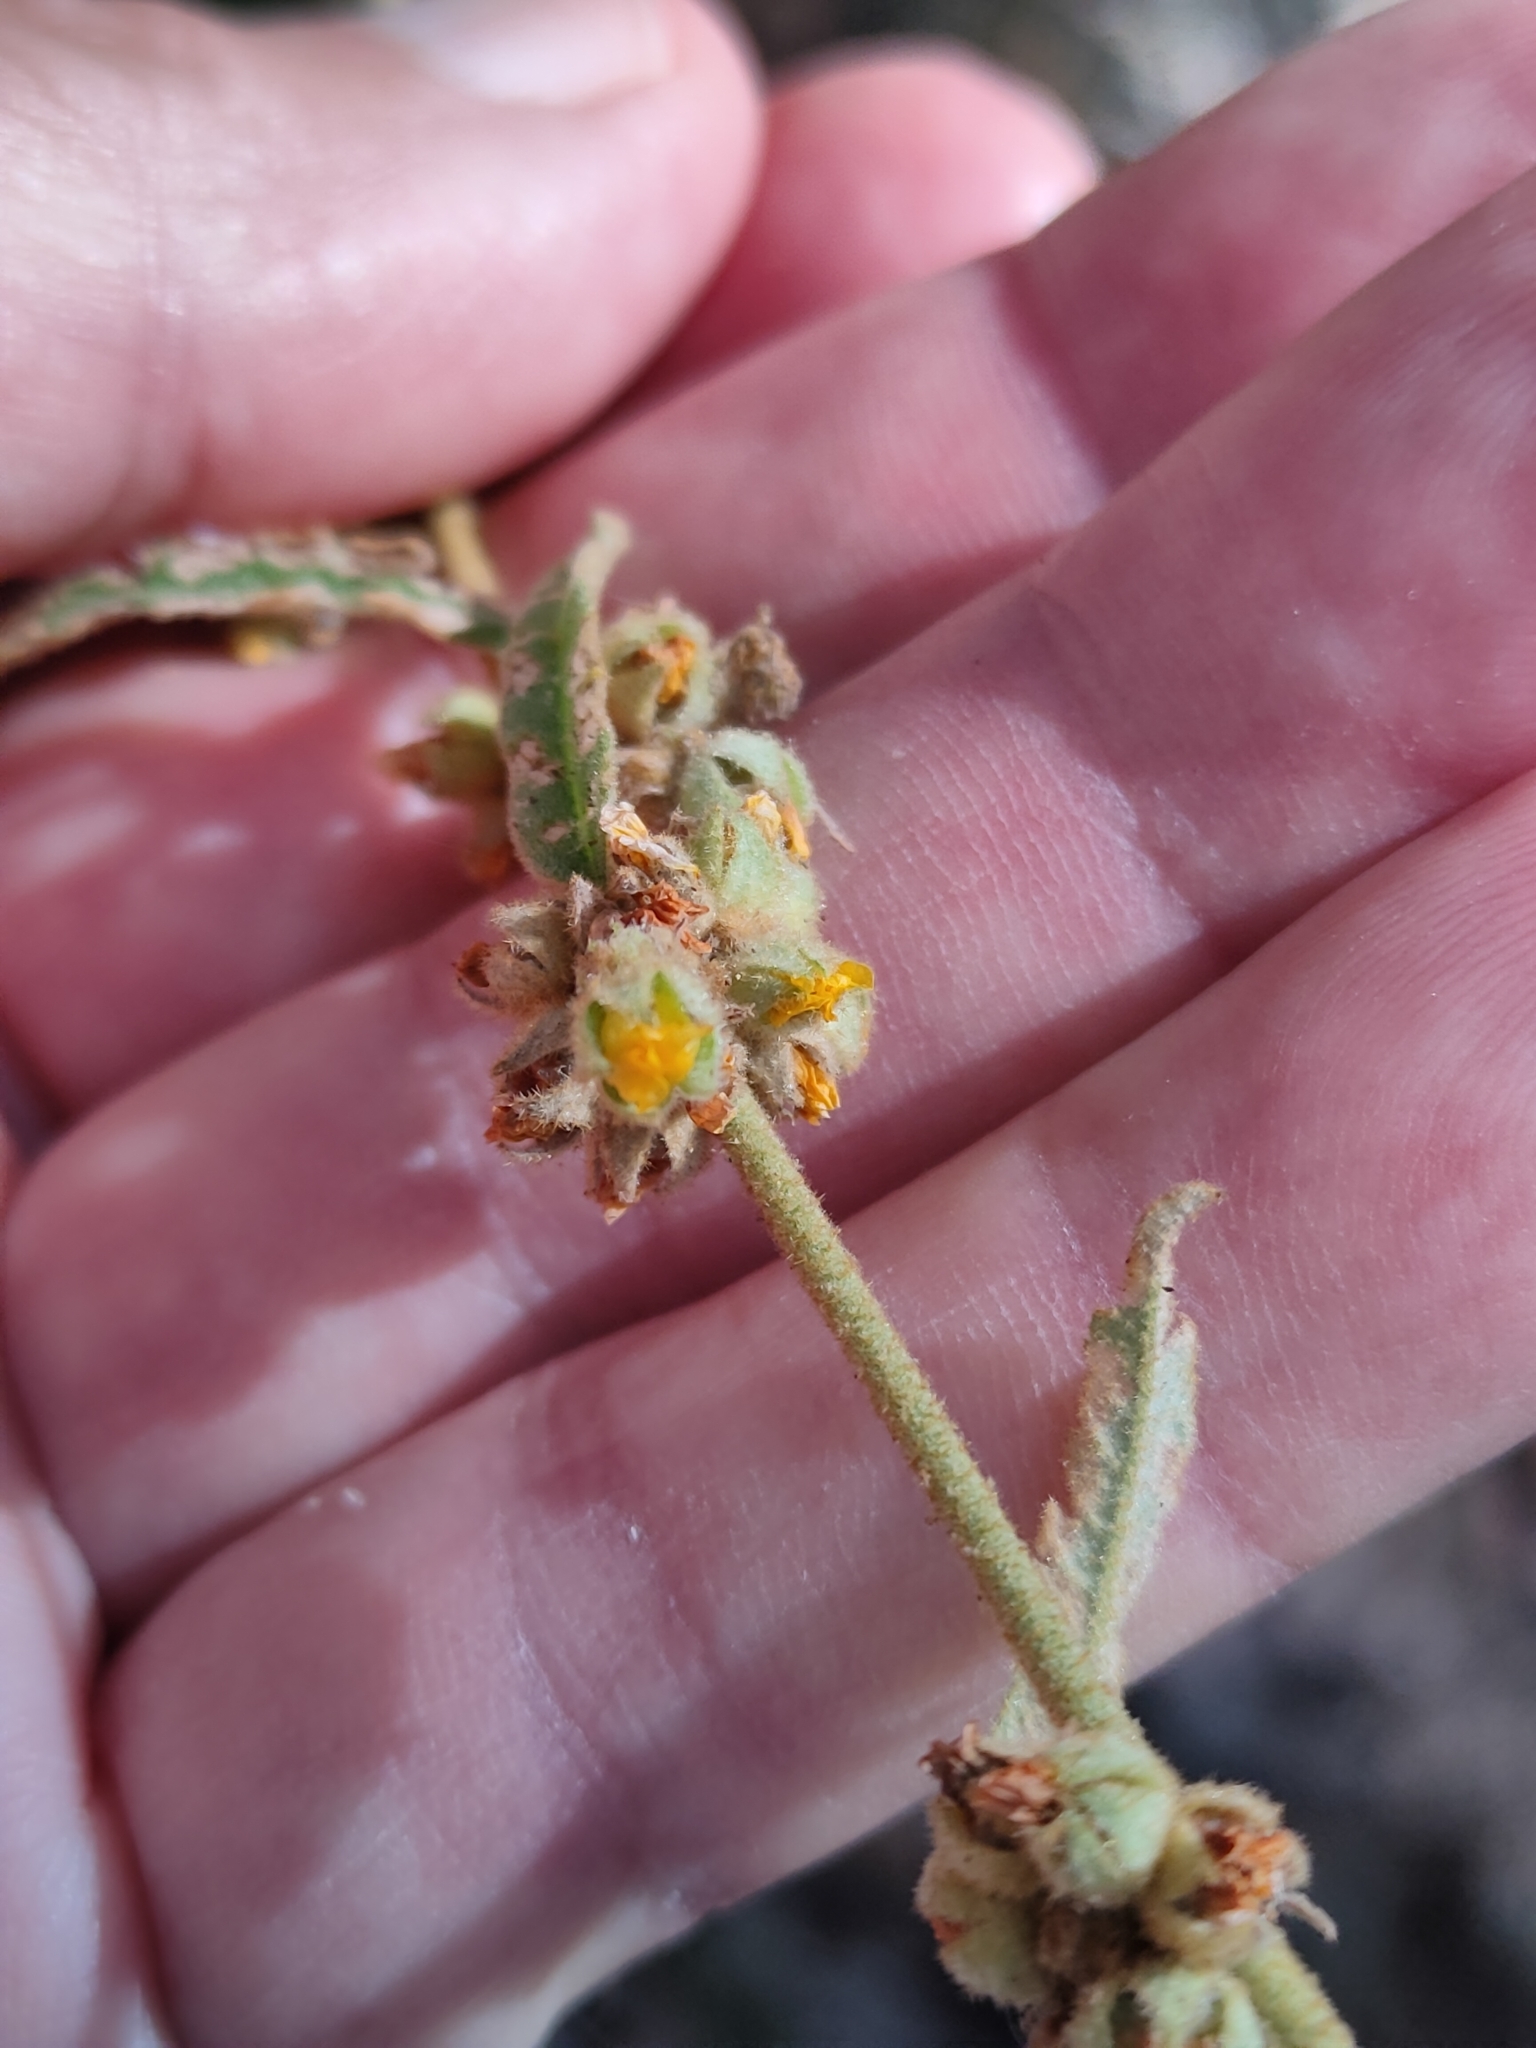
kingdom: Plantae
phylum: Tracheophyta
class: Magnoliopsida
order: Malvales
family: Malvaceae
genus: Sida
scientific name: Sida hackettiana
